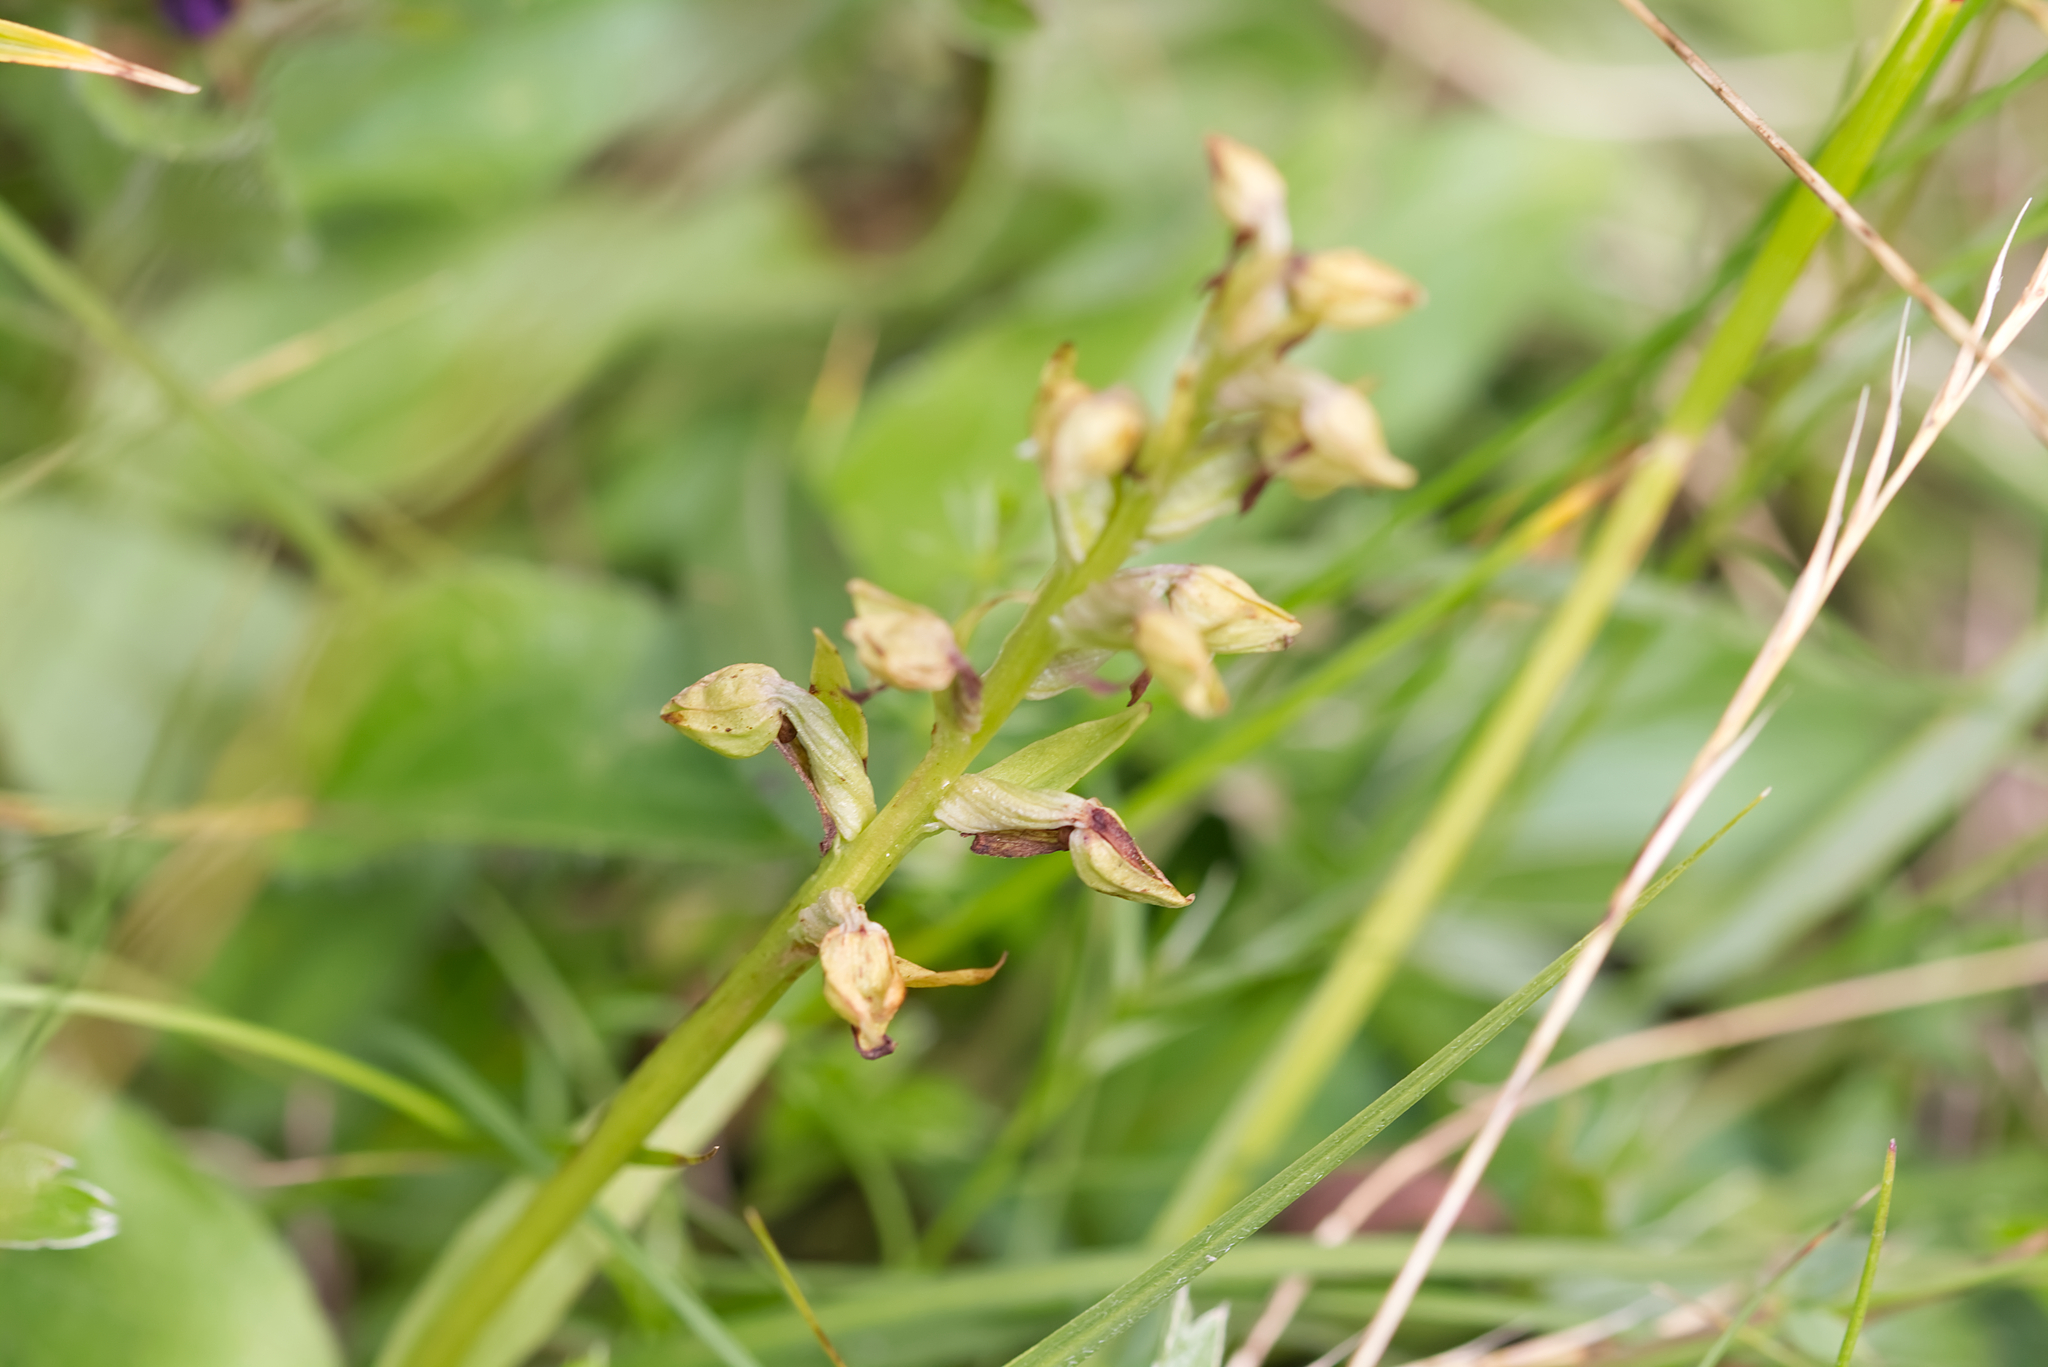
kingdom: Plantae
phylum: Tracheophyta
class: Liliopsida
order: Asparagales
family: Orchidaceae
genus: Dactylorhiza
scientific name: Dactylorhiza viridis
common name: Longbract frog orchid
